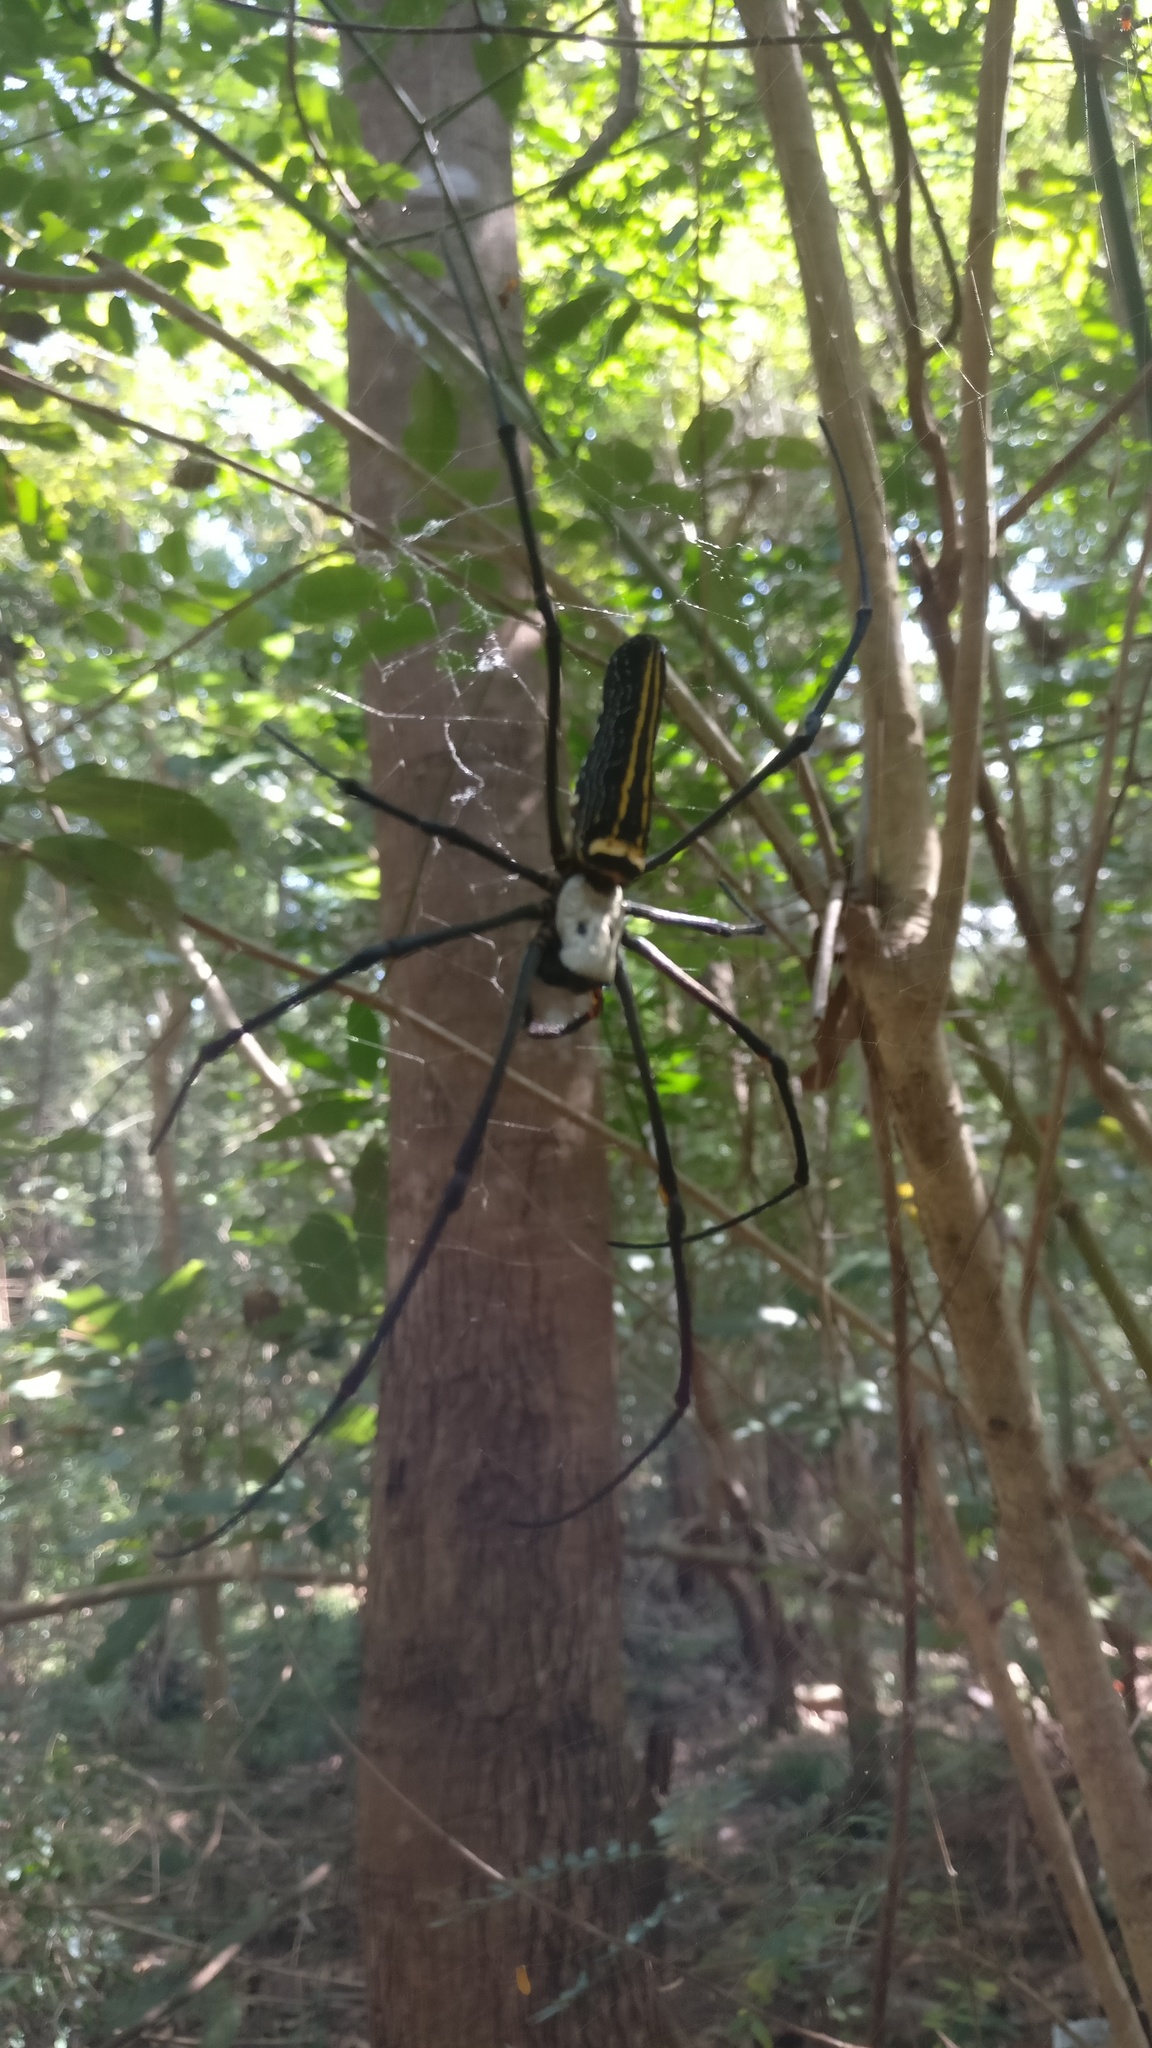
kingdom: Animalia
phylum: Arthropoda
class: Arachnida
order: Araneae
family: Araneidae
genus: Nephila
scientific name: Nephila pilipes
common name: Giant golden orb weaver
